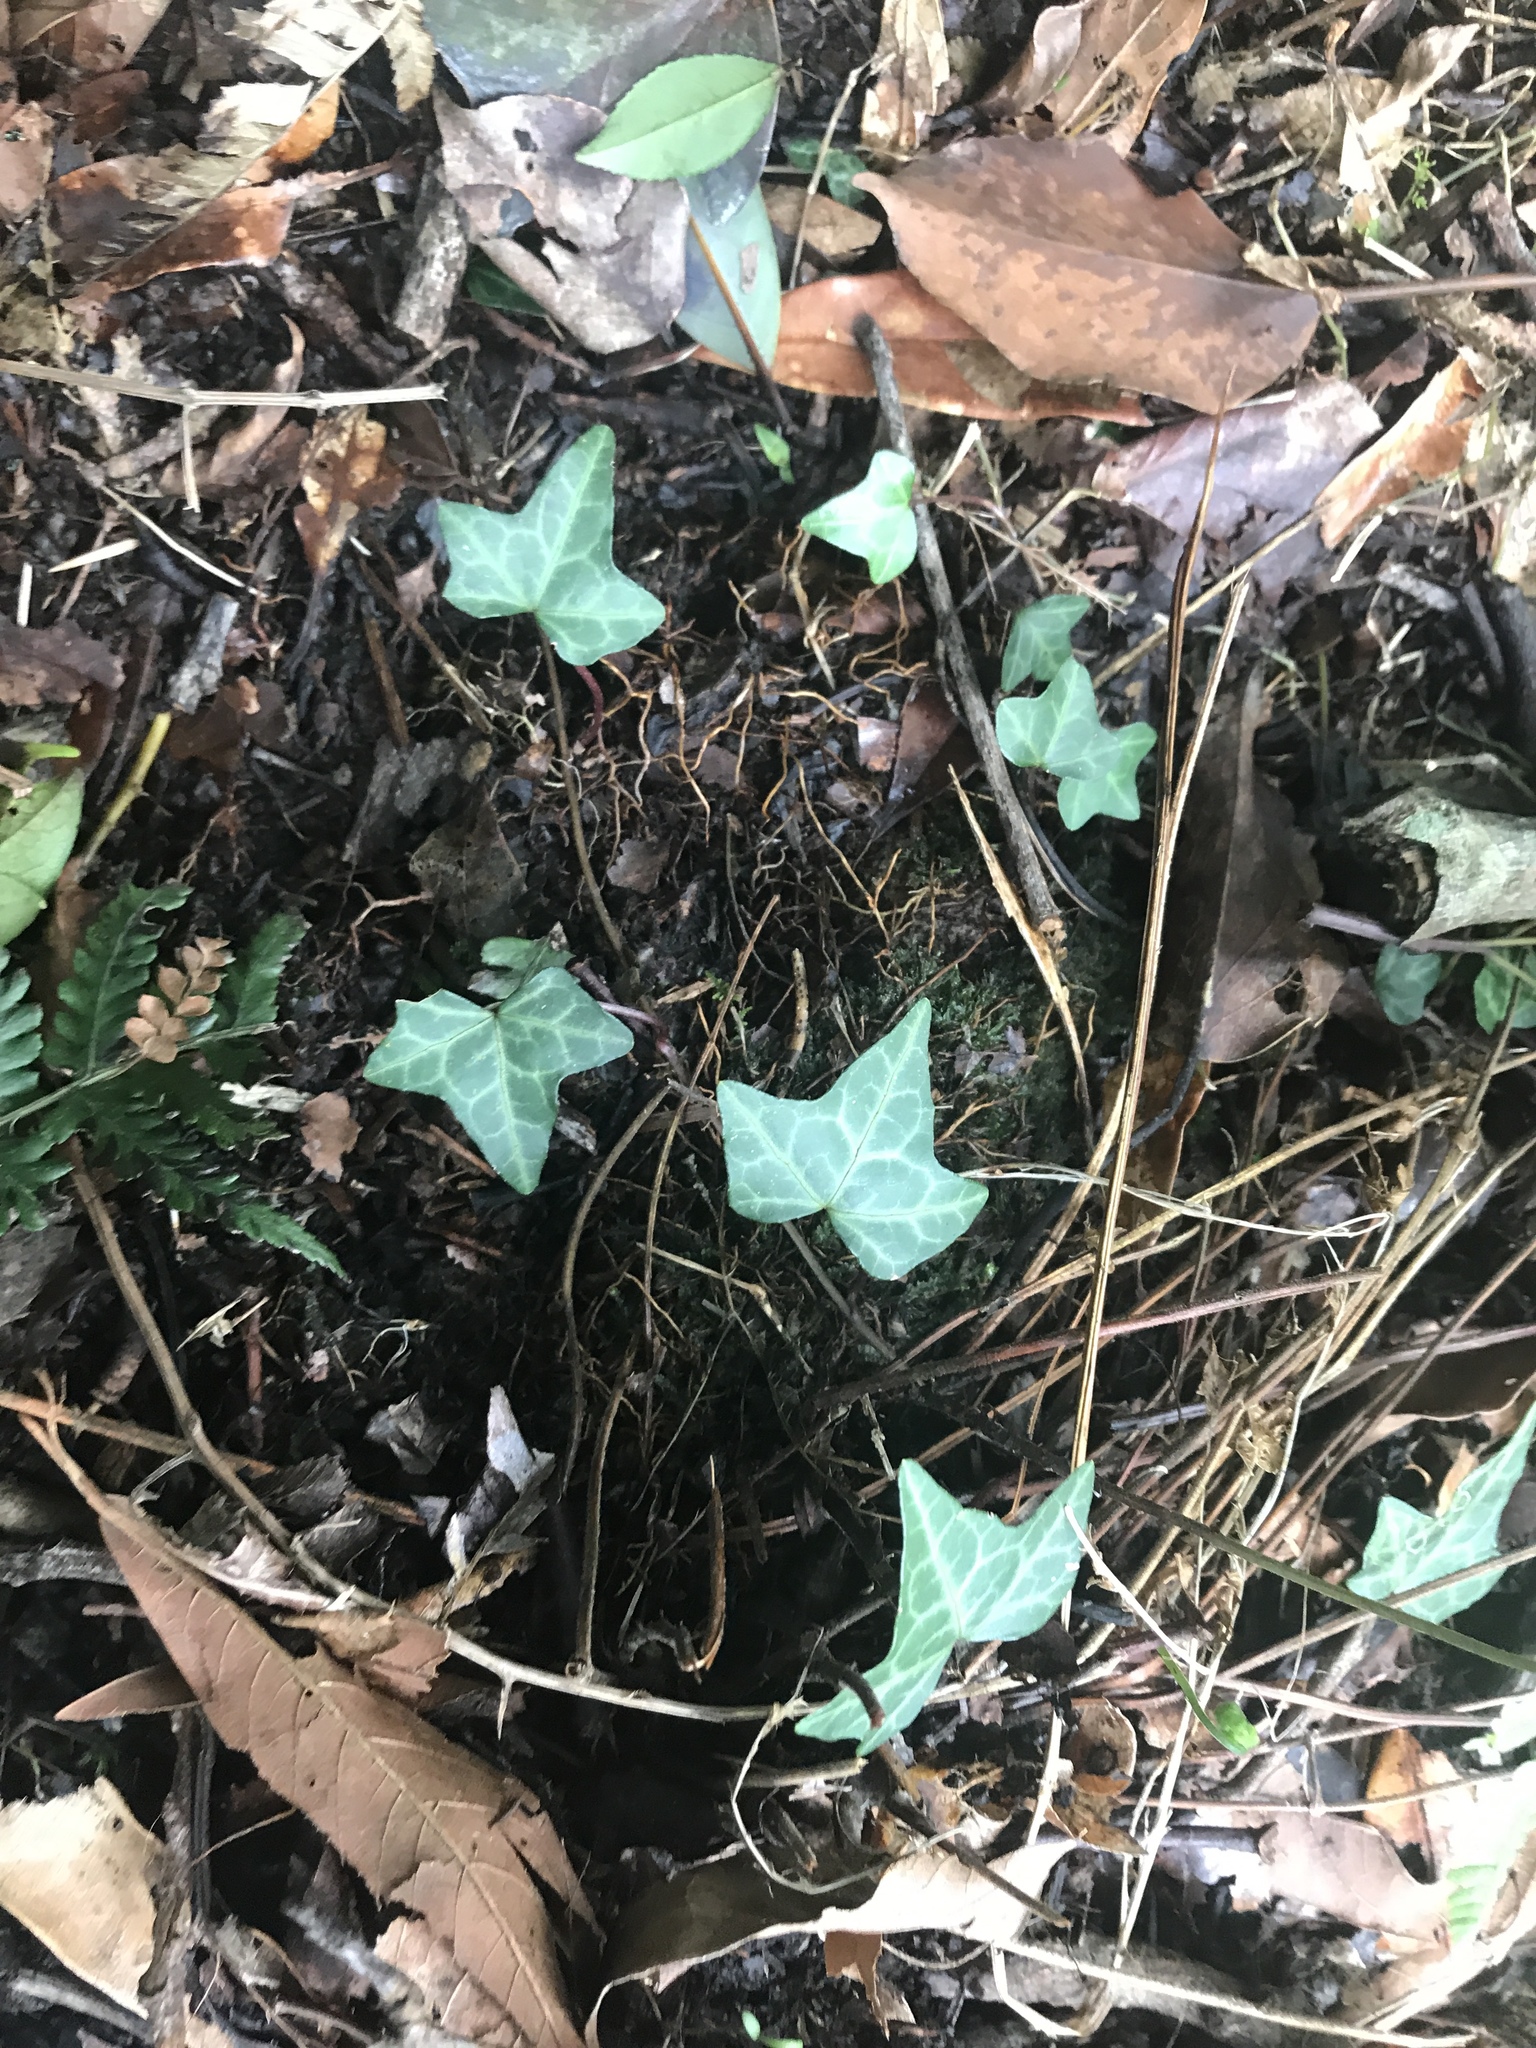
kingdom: Plantae
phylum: Tracheophyta
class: Magnoliopsida
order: Apiales
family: Araliaceae
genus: Hedera
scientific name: Hedera rhombea
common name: Japanese ivy
